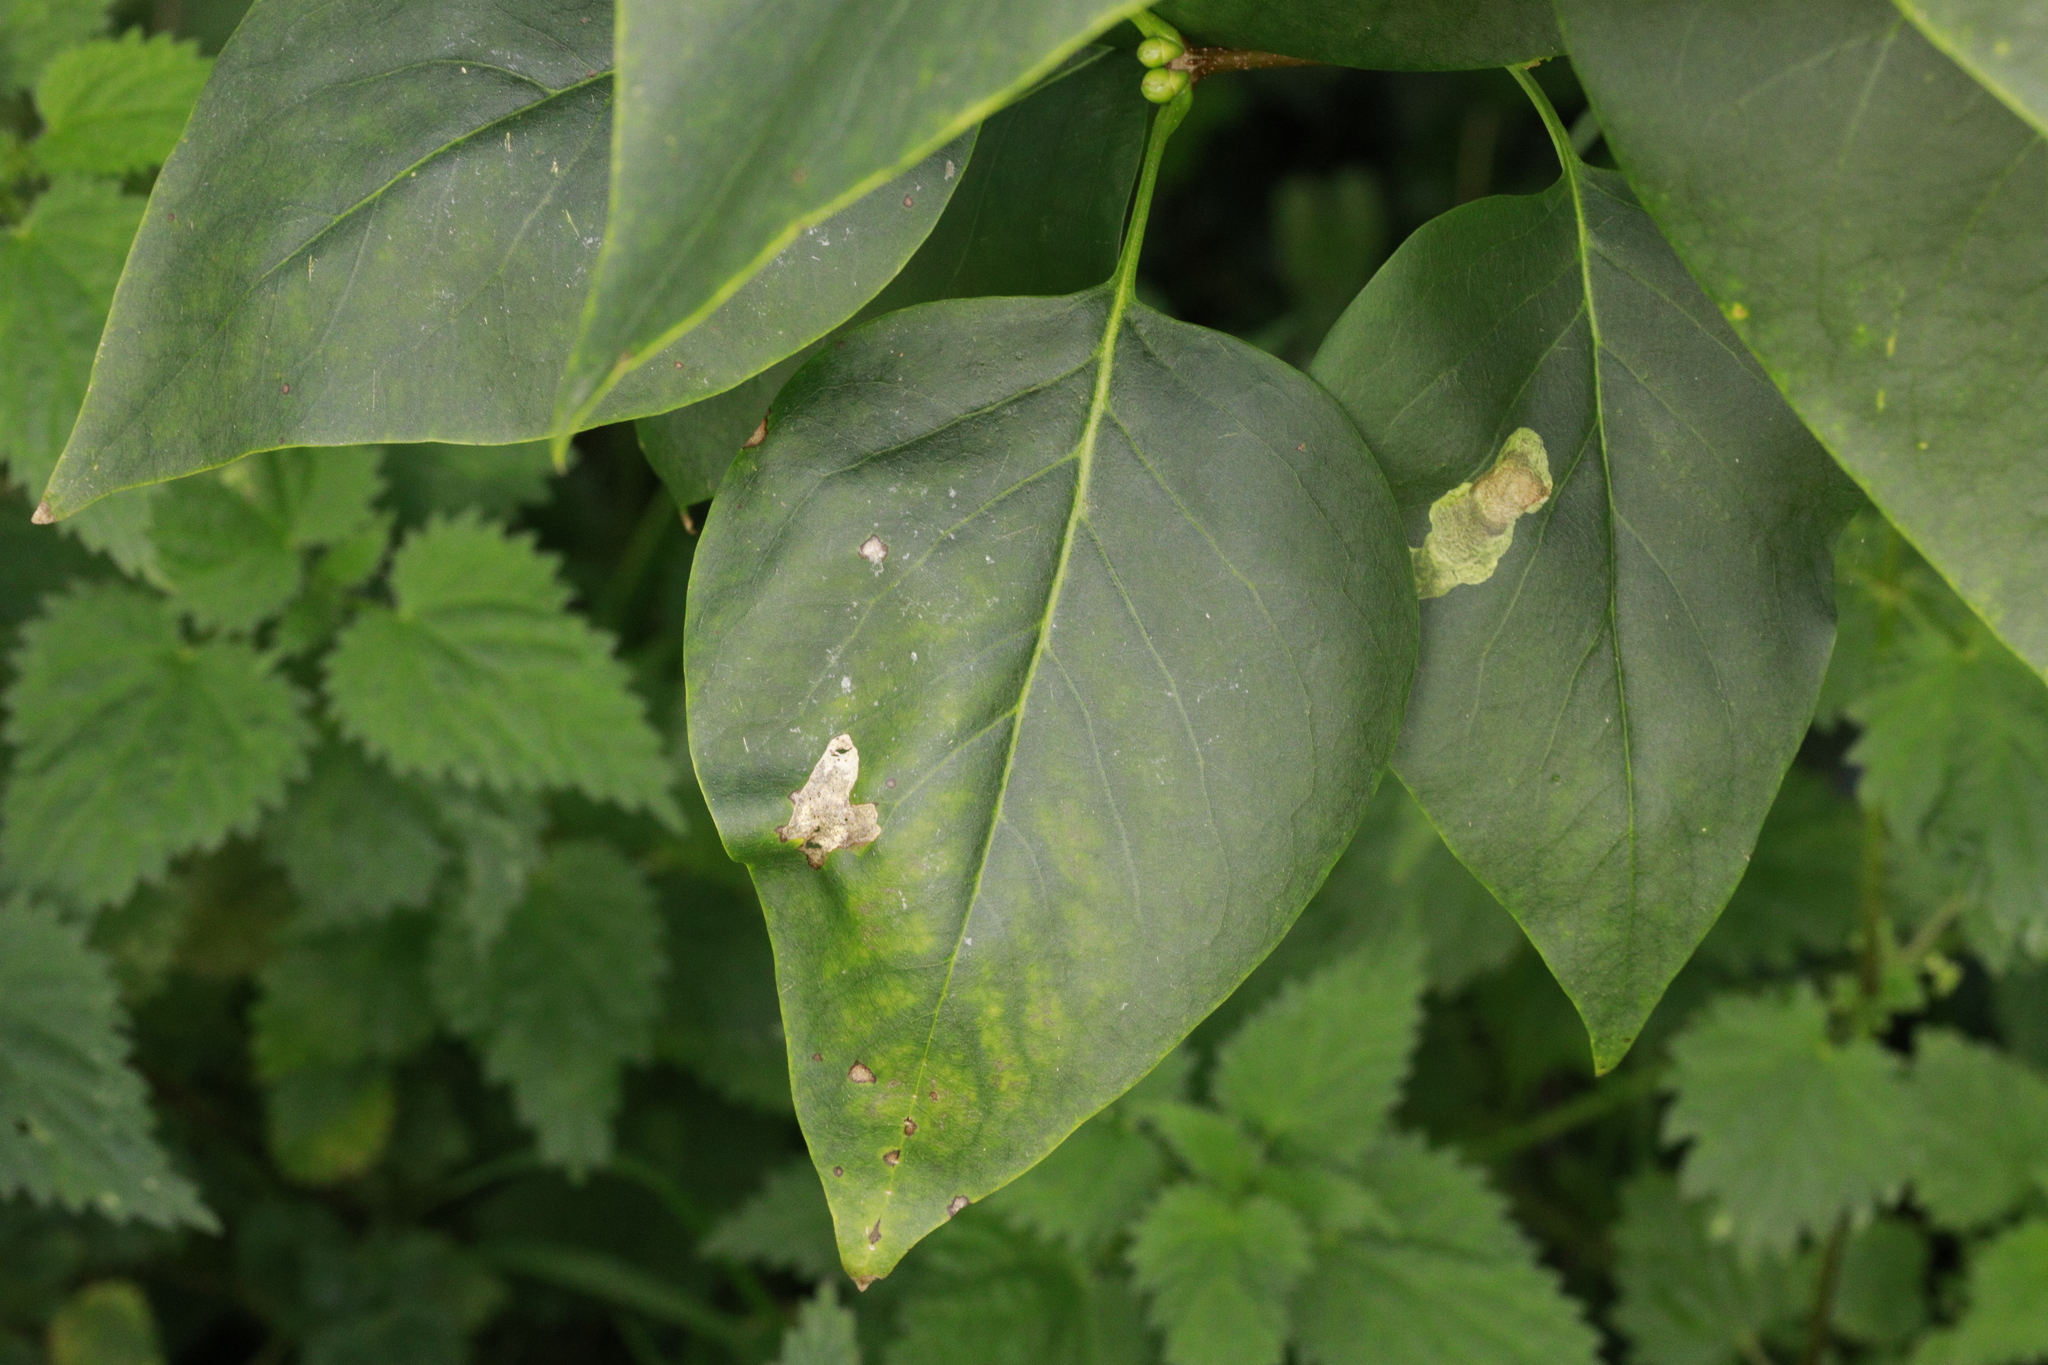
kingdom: Animalia
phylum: Arthropoda
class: Insecta
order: Lepidoptera
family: Gracillariidae
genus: Gracillaria
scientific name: Gracillaria syringella
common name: Common slender
